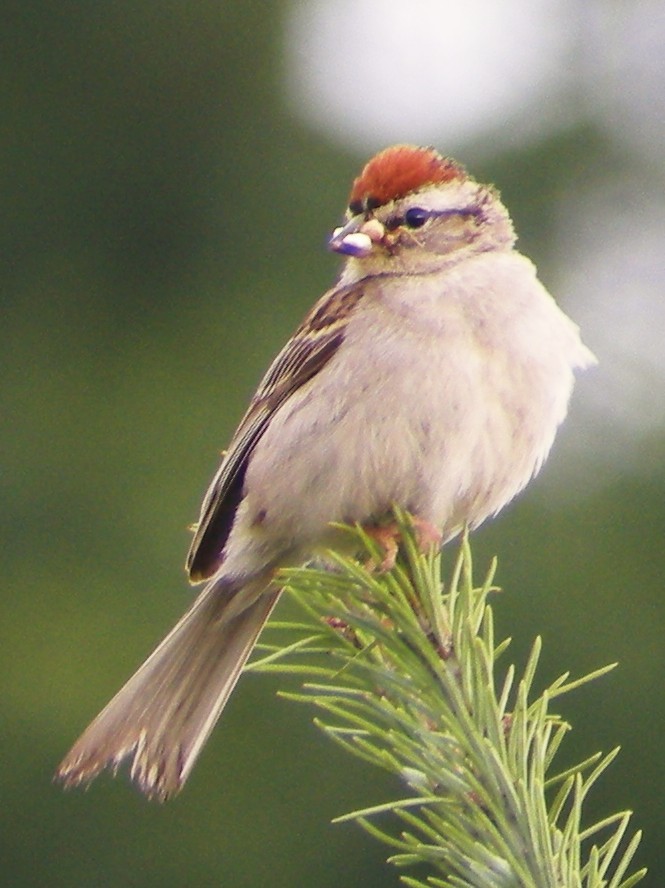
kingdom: Animalia
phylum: Chordata
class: Aves
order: Passeriformes
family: Passerellidae
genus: Spizella
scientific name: Spizella passerina
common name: Chipping sparrow
